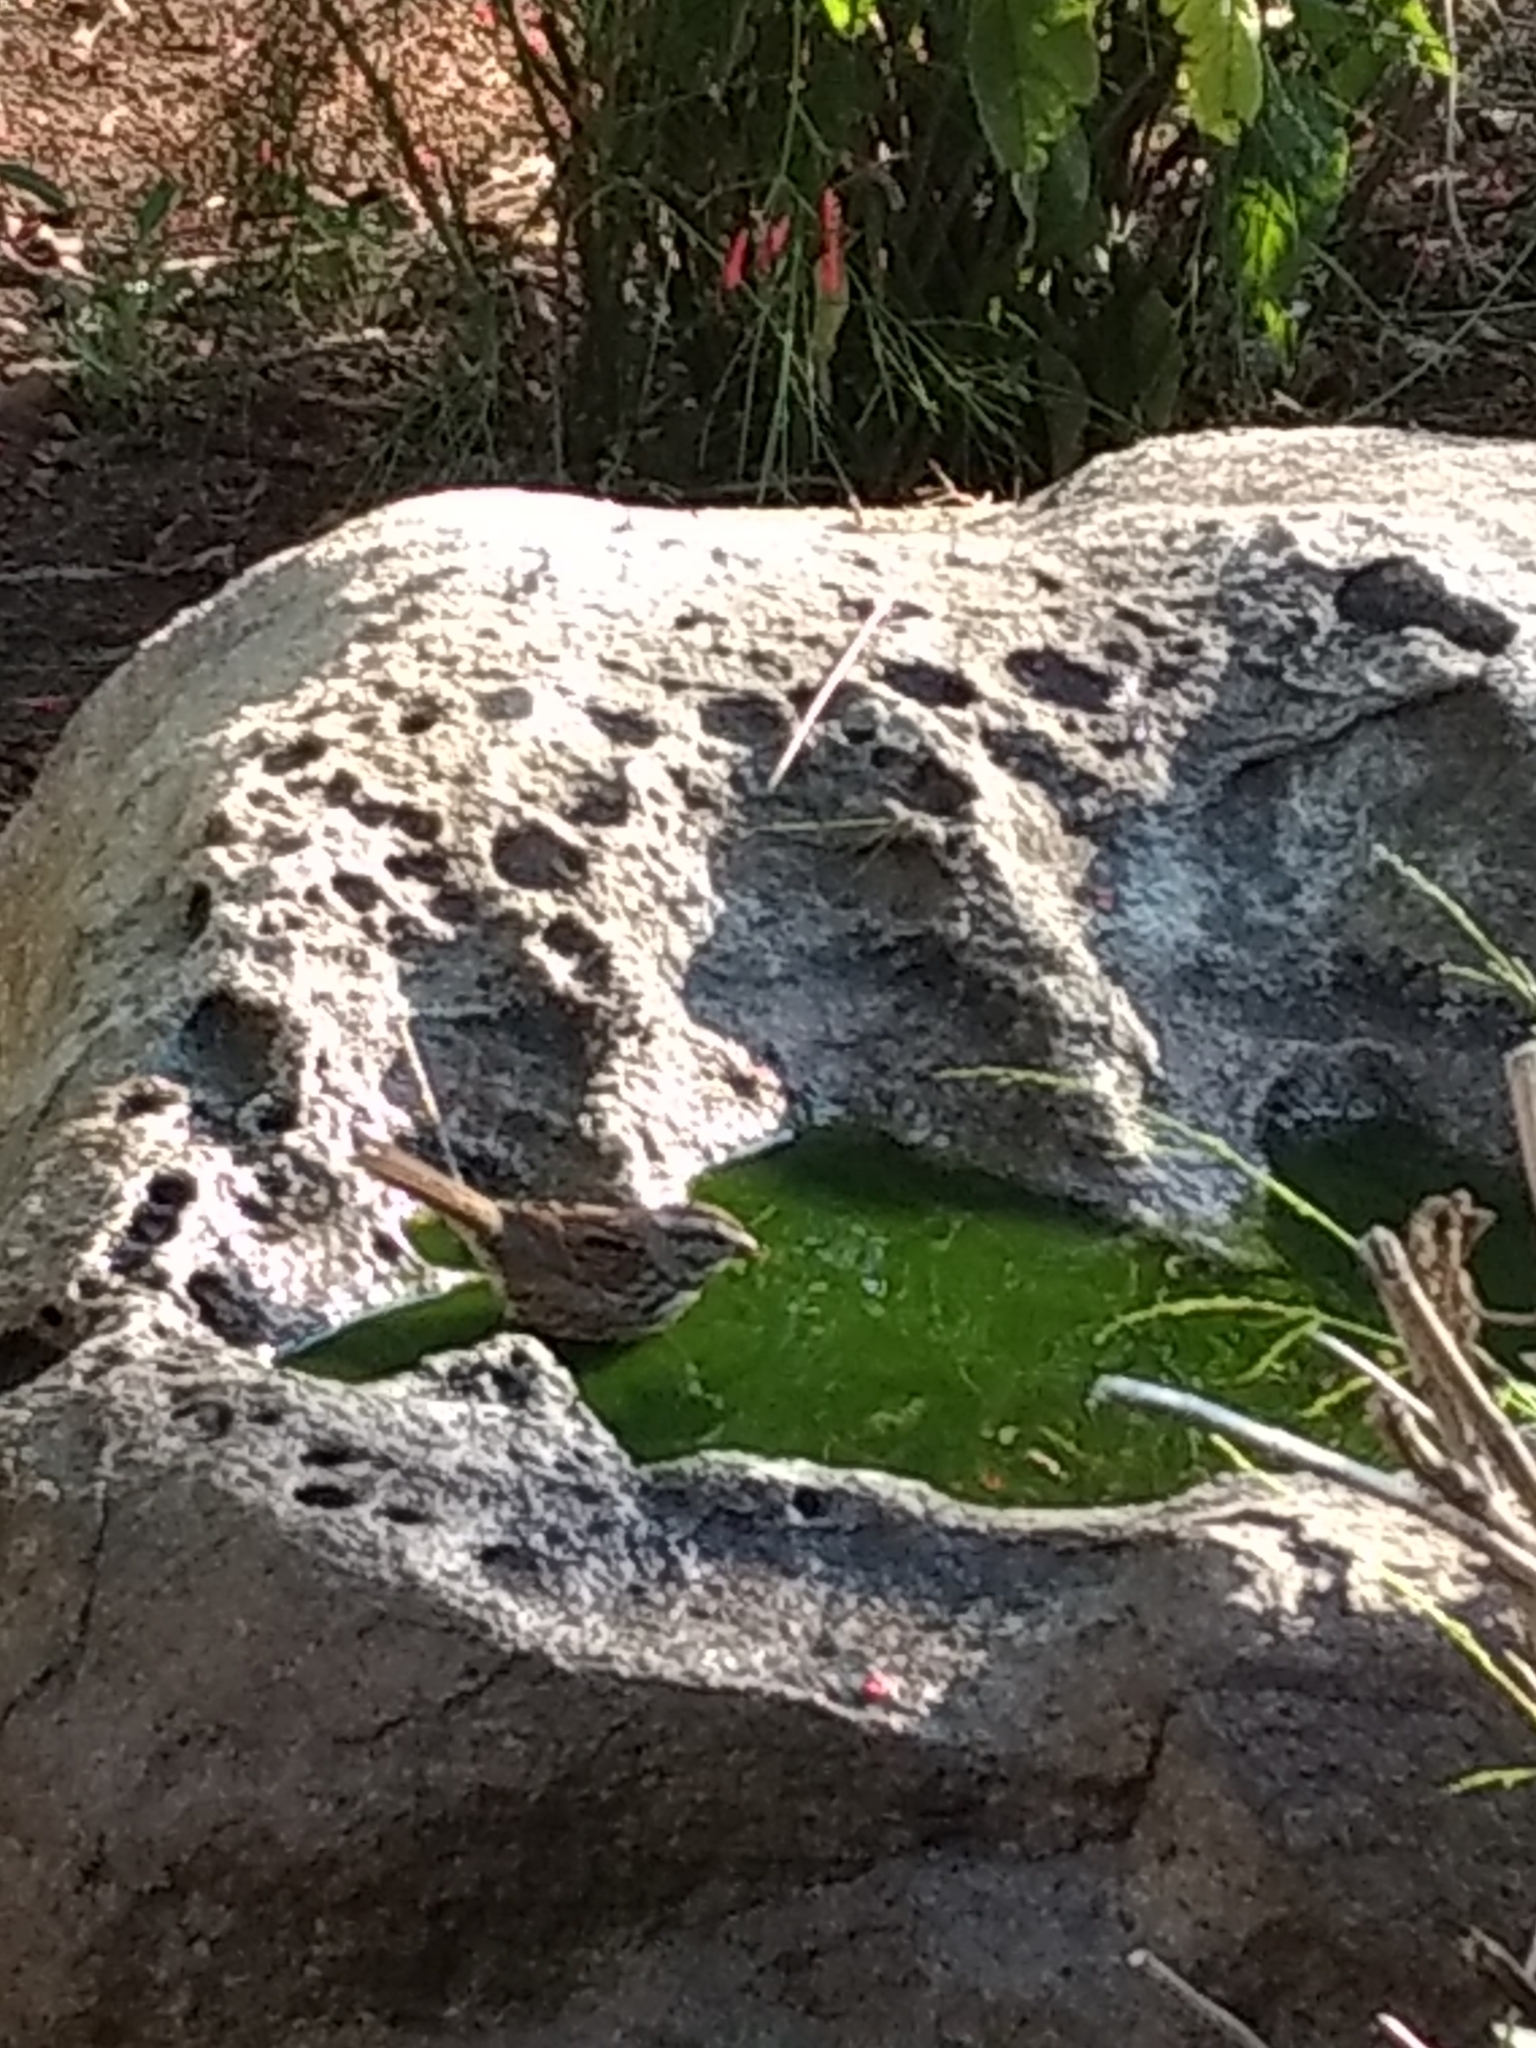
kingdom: Animalia
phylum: Chordata
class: Aves
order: Passeriformes
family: Passerellidae
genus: Melospiza
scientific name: Melospiza melodia
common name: Song sparrow
